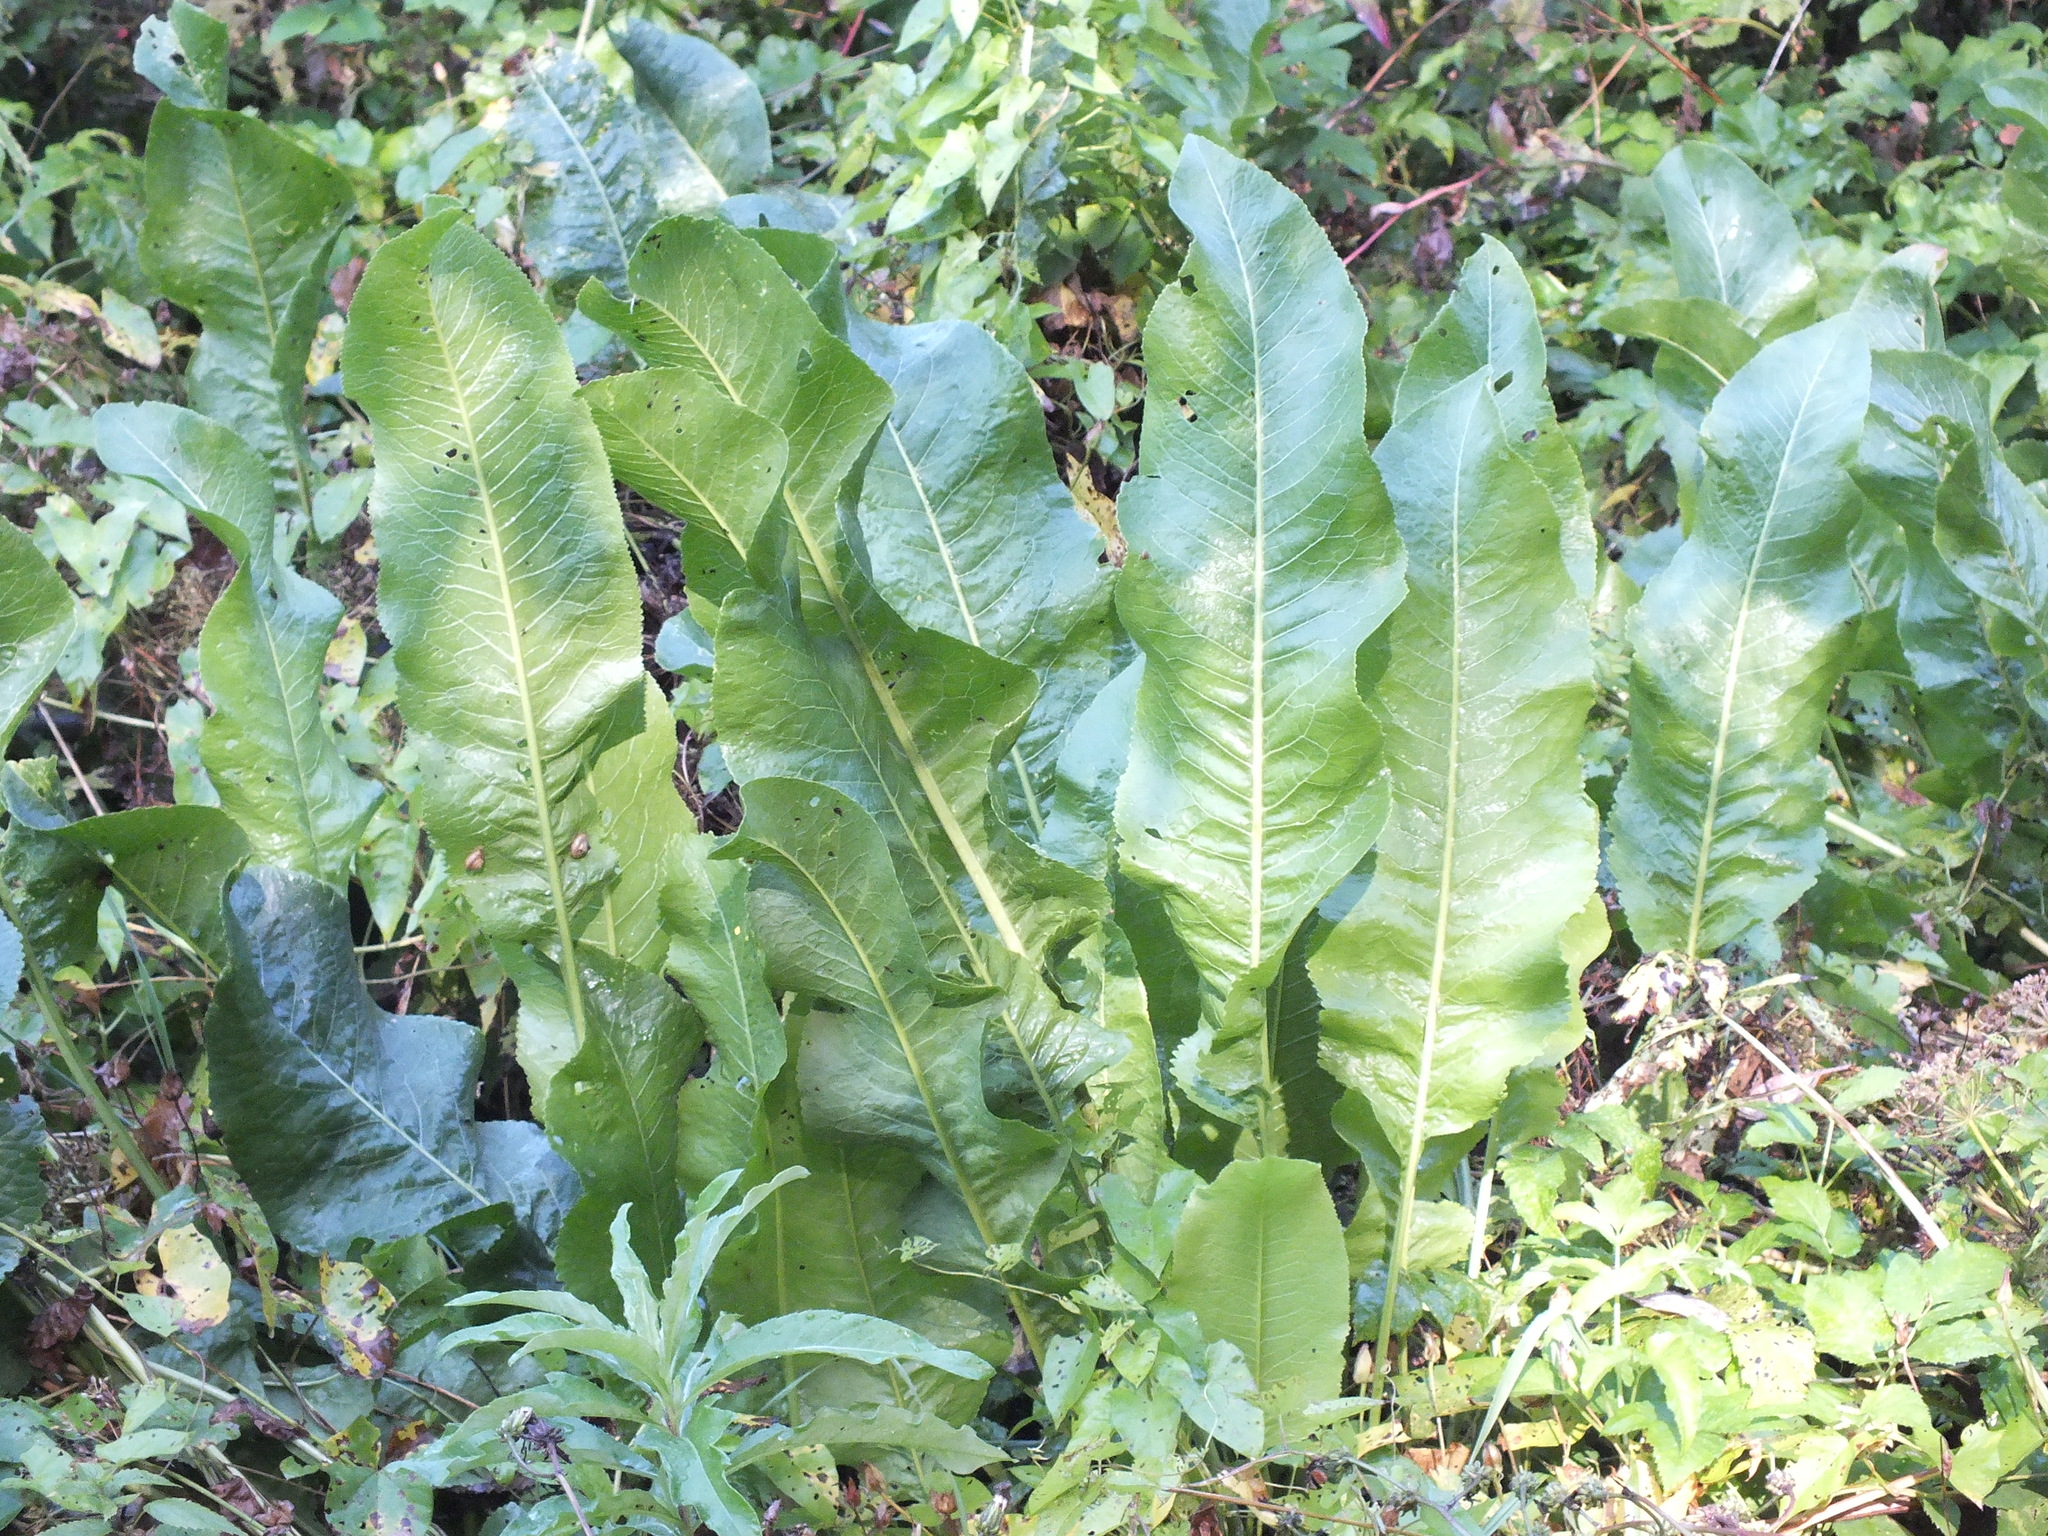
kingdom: Plantae
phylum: Tracheophyta
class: Magnoliopsida
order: Brassicales
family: Brassicaceae
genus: Armoracia
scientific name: Armoracia rusticana
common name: Horseradish
